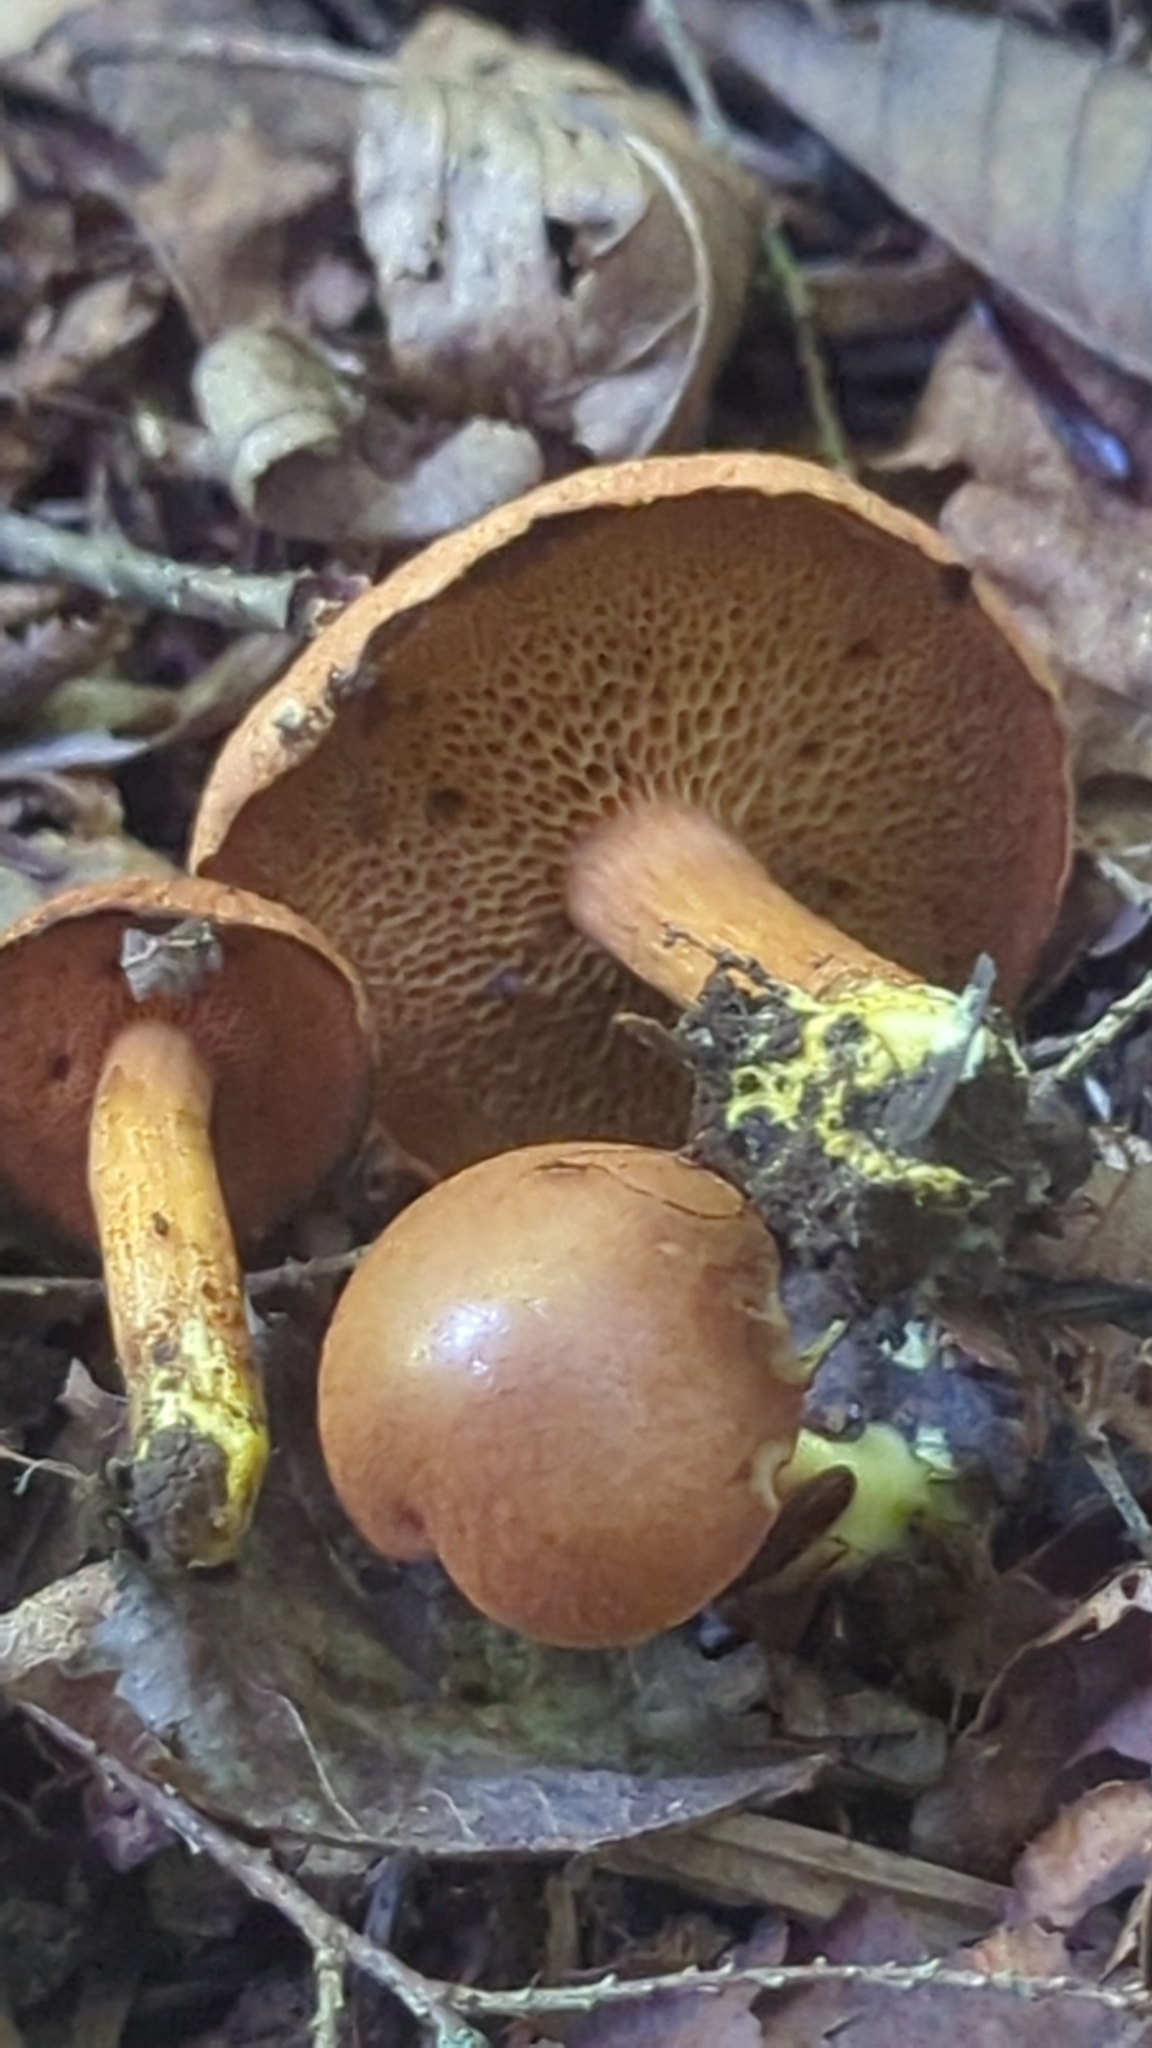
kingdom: Fungi
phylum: Basidiomycota
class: Agaricomycetes
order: Boletales
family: Boletaceae
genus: Chalciporus
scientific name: Chalciporus piperatus
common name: Peppery bolete
